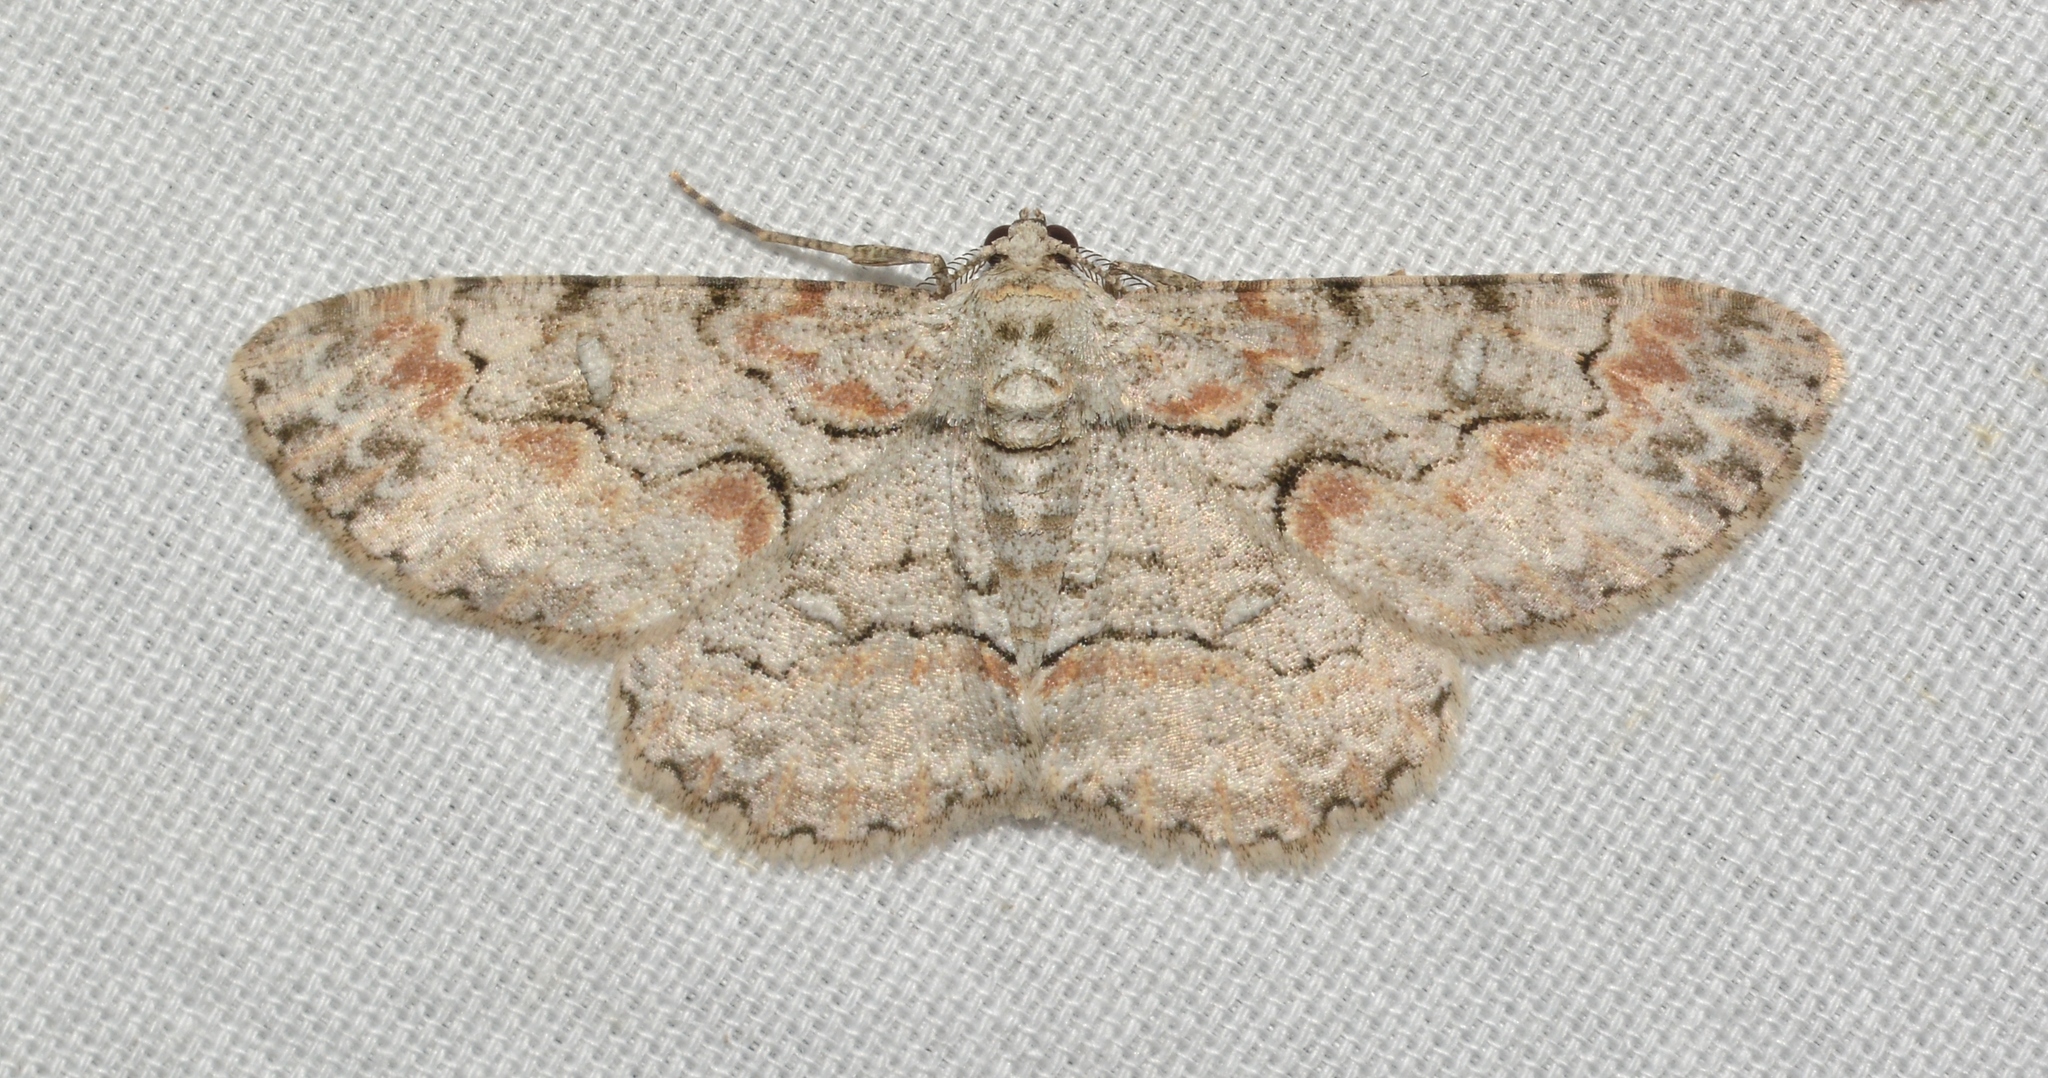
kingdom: Animalia
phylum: Arthropoda
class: Insecta
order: Lepidoptera
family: Geometridae
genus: Iridopsis
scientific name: Iridopsis defectaria
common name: Brown-shaded gray
